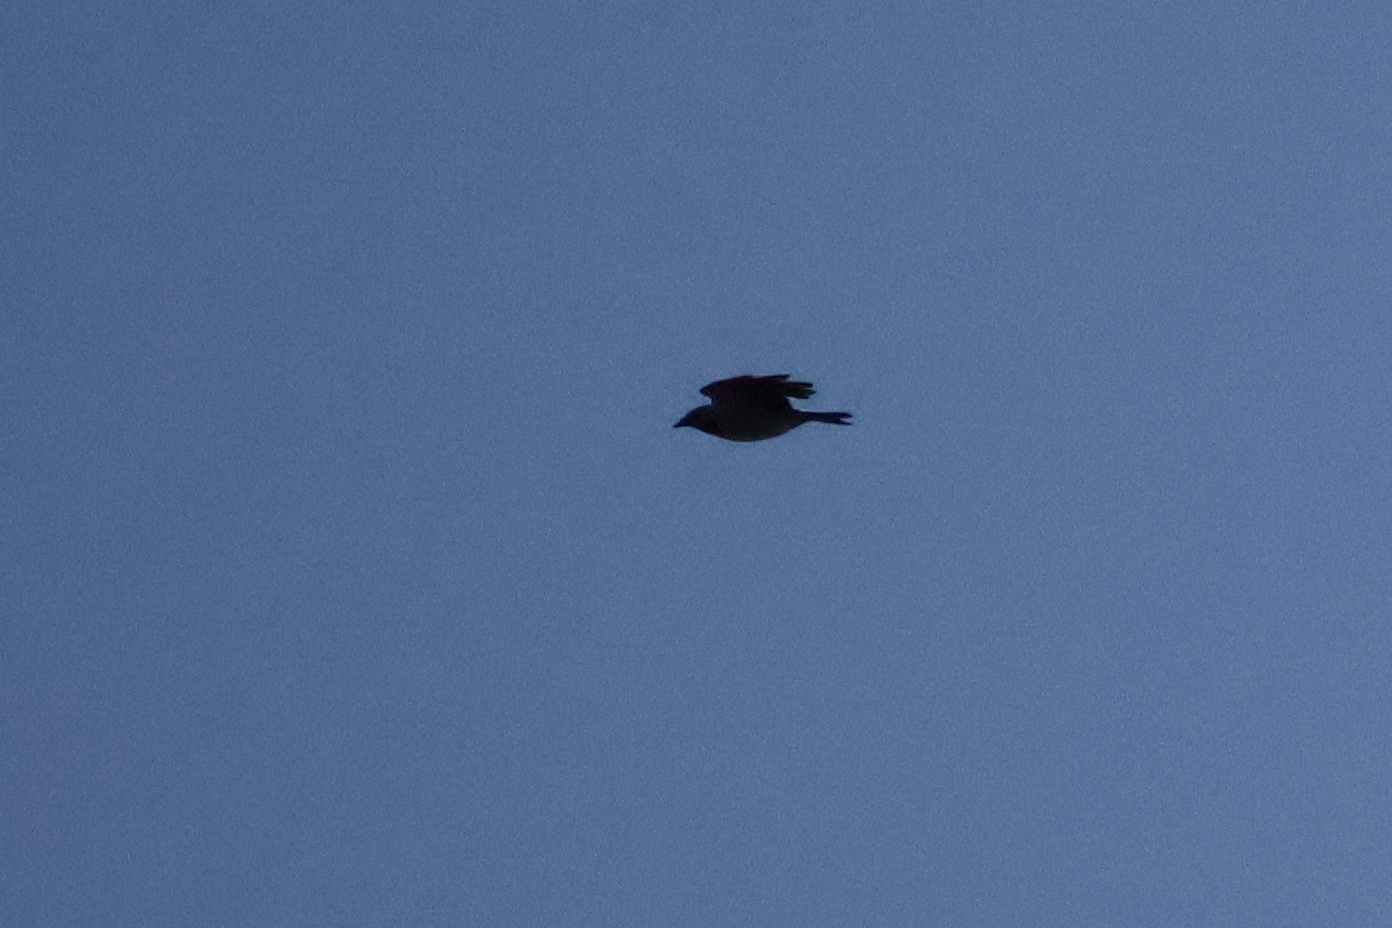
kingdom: Animalia
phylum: Chordata
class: Aves
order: Passeriformes
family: Corvidae
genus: Corvus
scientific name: Corvus cornix
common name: Hooded crow
